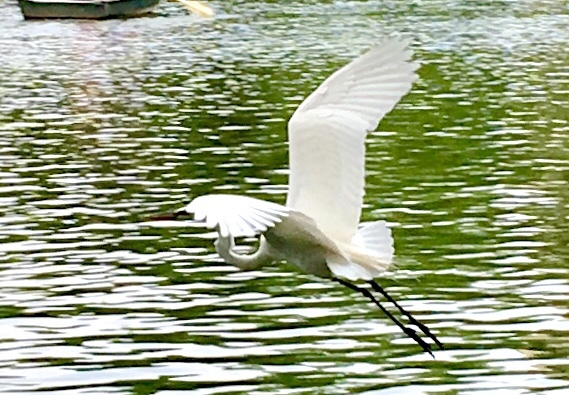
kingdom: Animalia
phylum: Chordata
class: Aves
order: Pelecaniformes
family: Ardeidae
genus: Ardea
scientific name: Ardea alba
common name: Great egret
